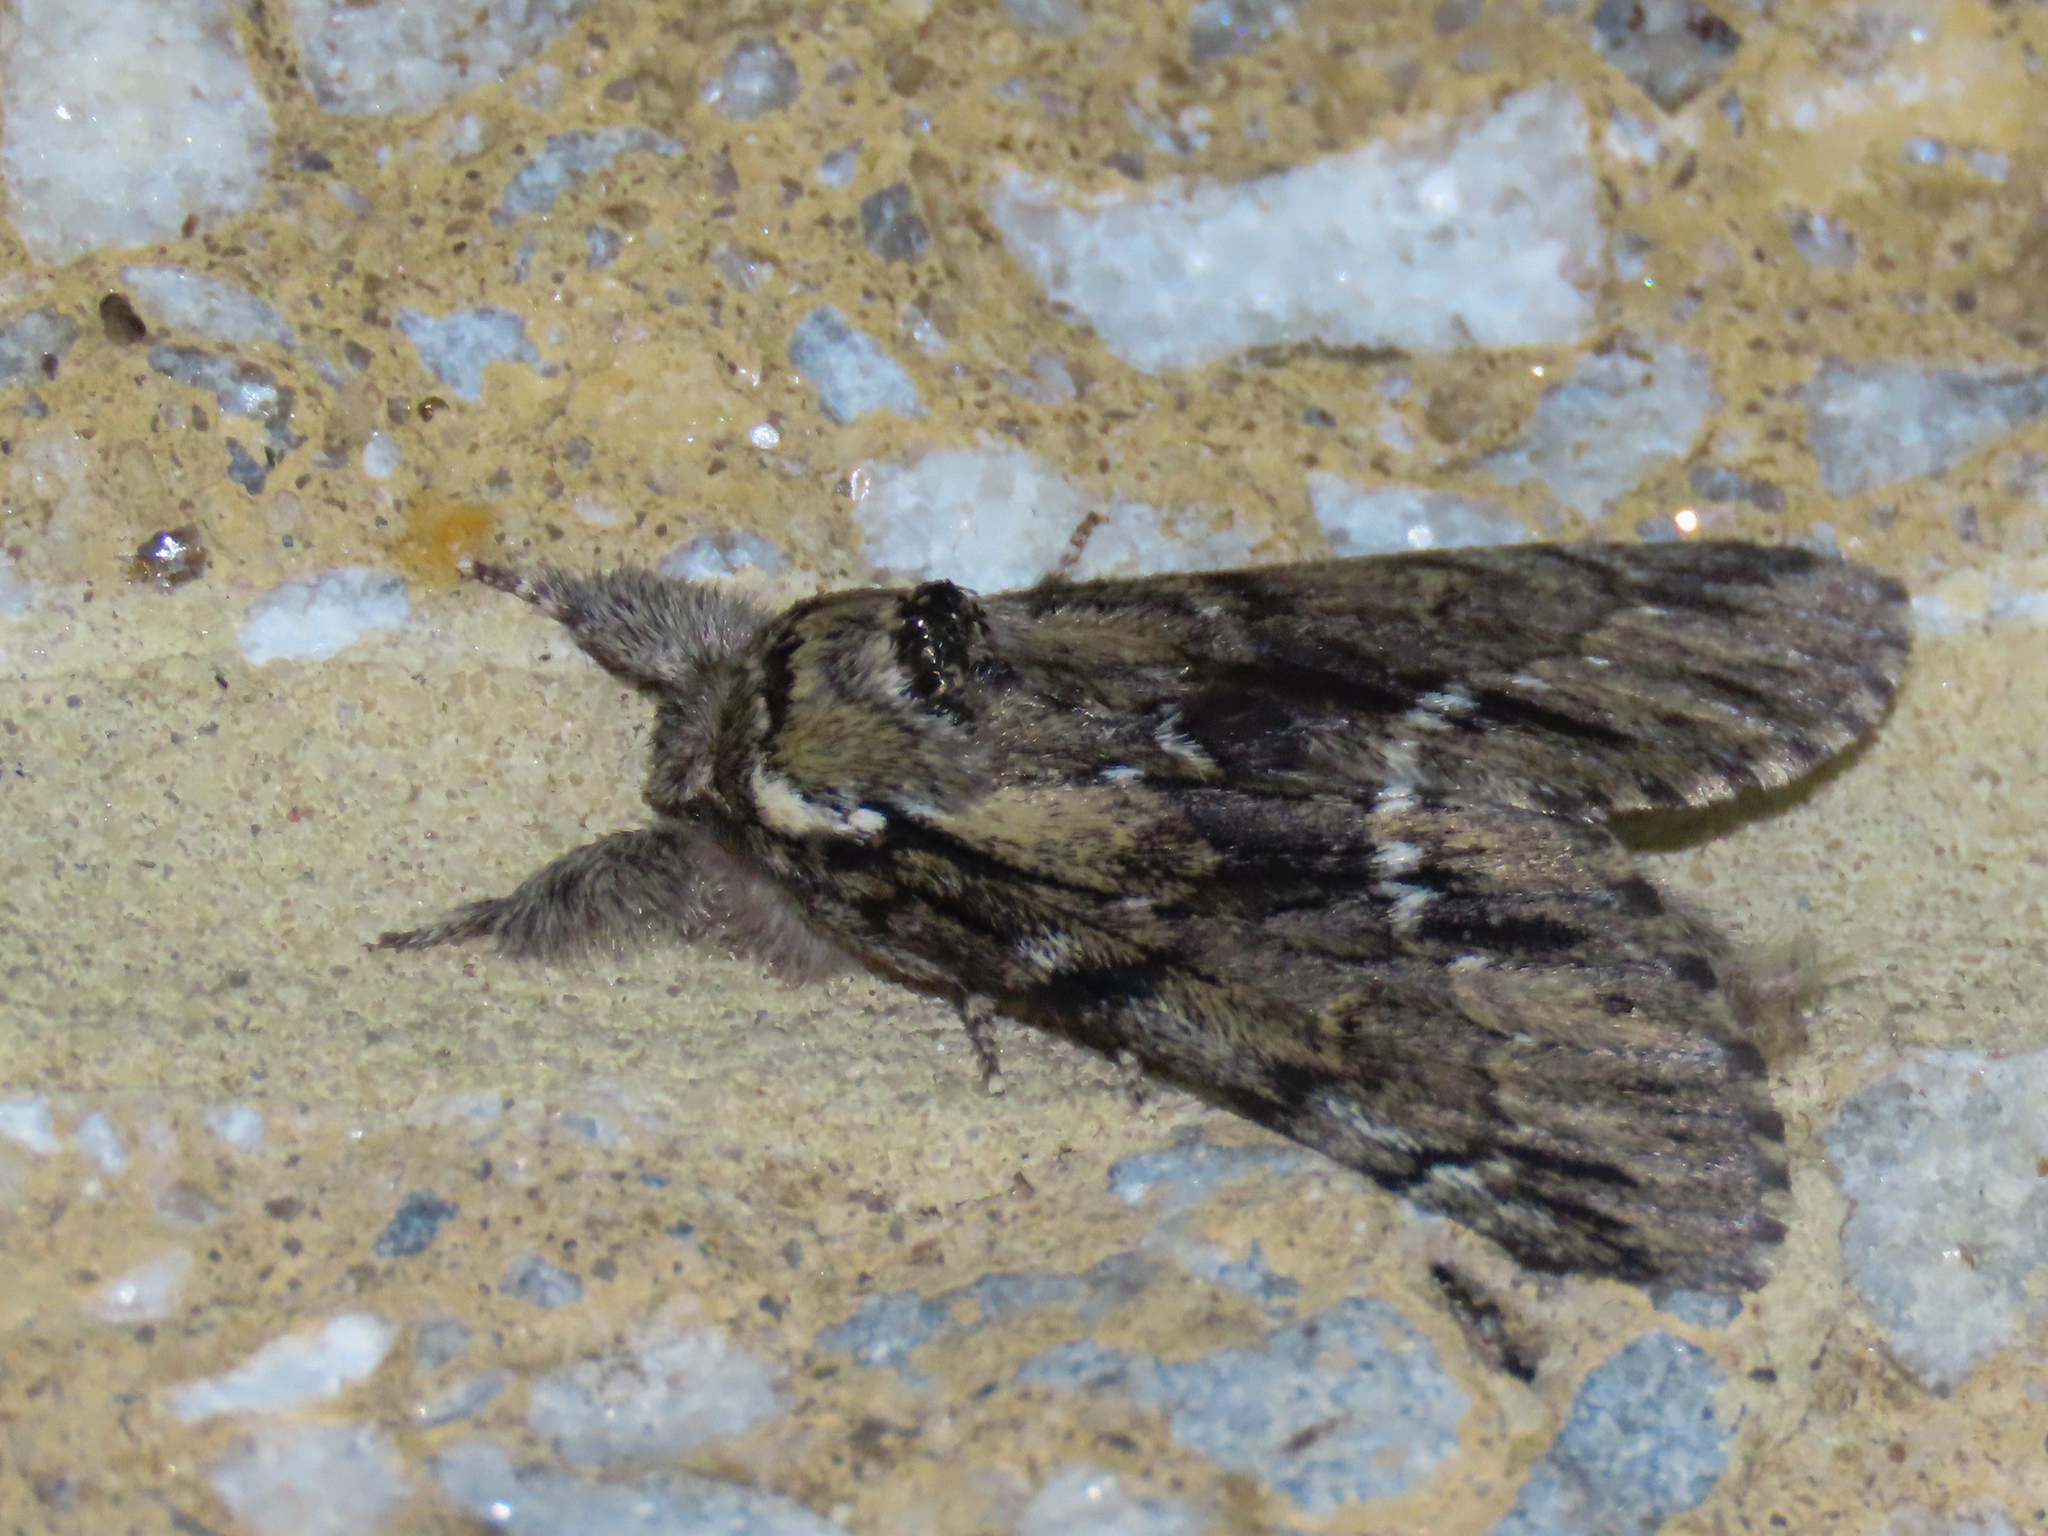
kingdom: Animalia
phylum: Arthropoda
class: Insecta
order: Lepidoptera
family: Notodontidae
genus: Paraeschra
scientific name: Paraeschra georgica
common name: Georgian prominent
